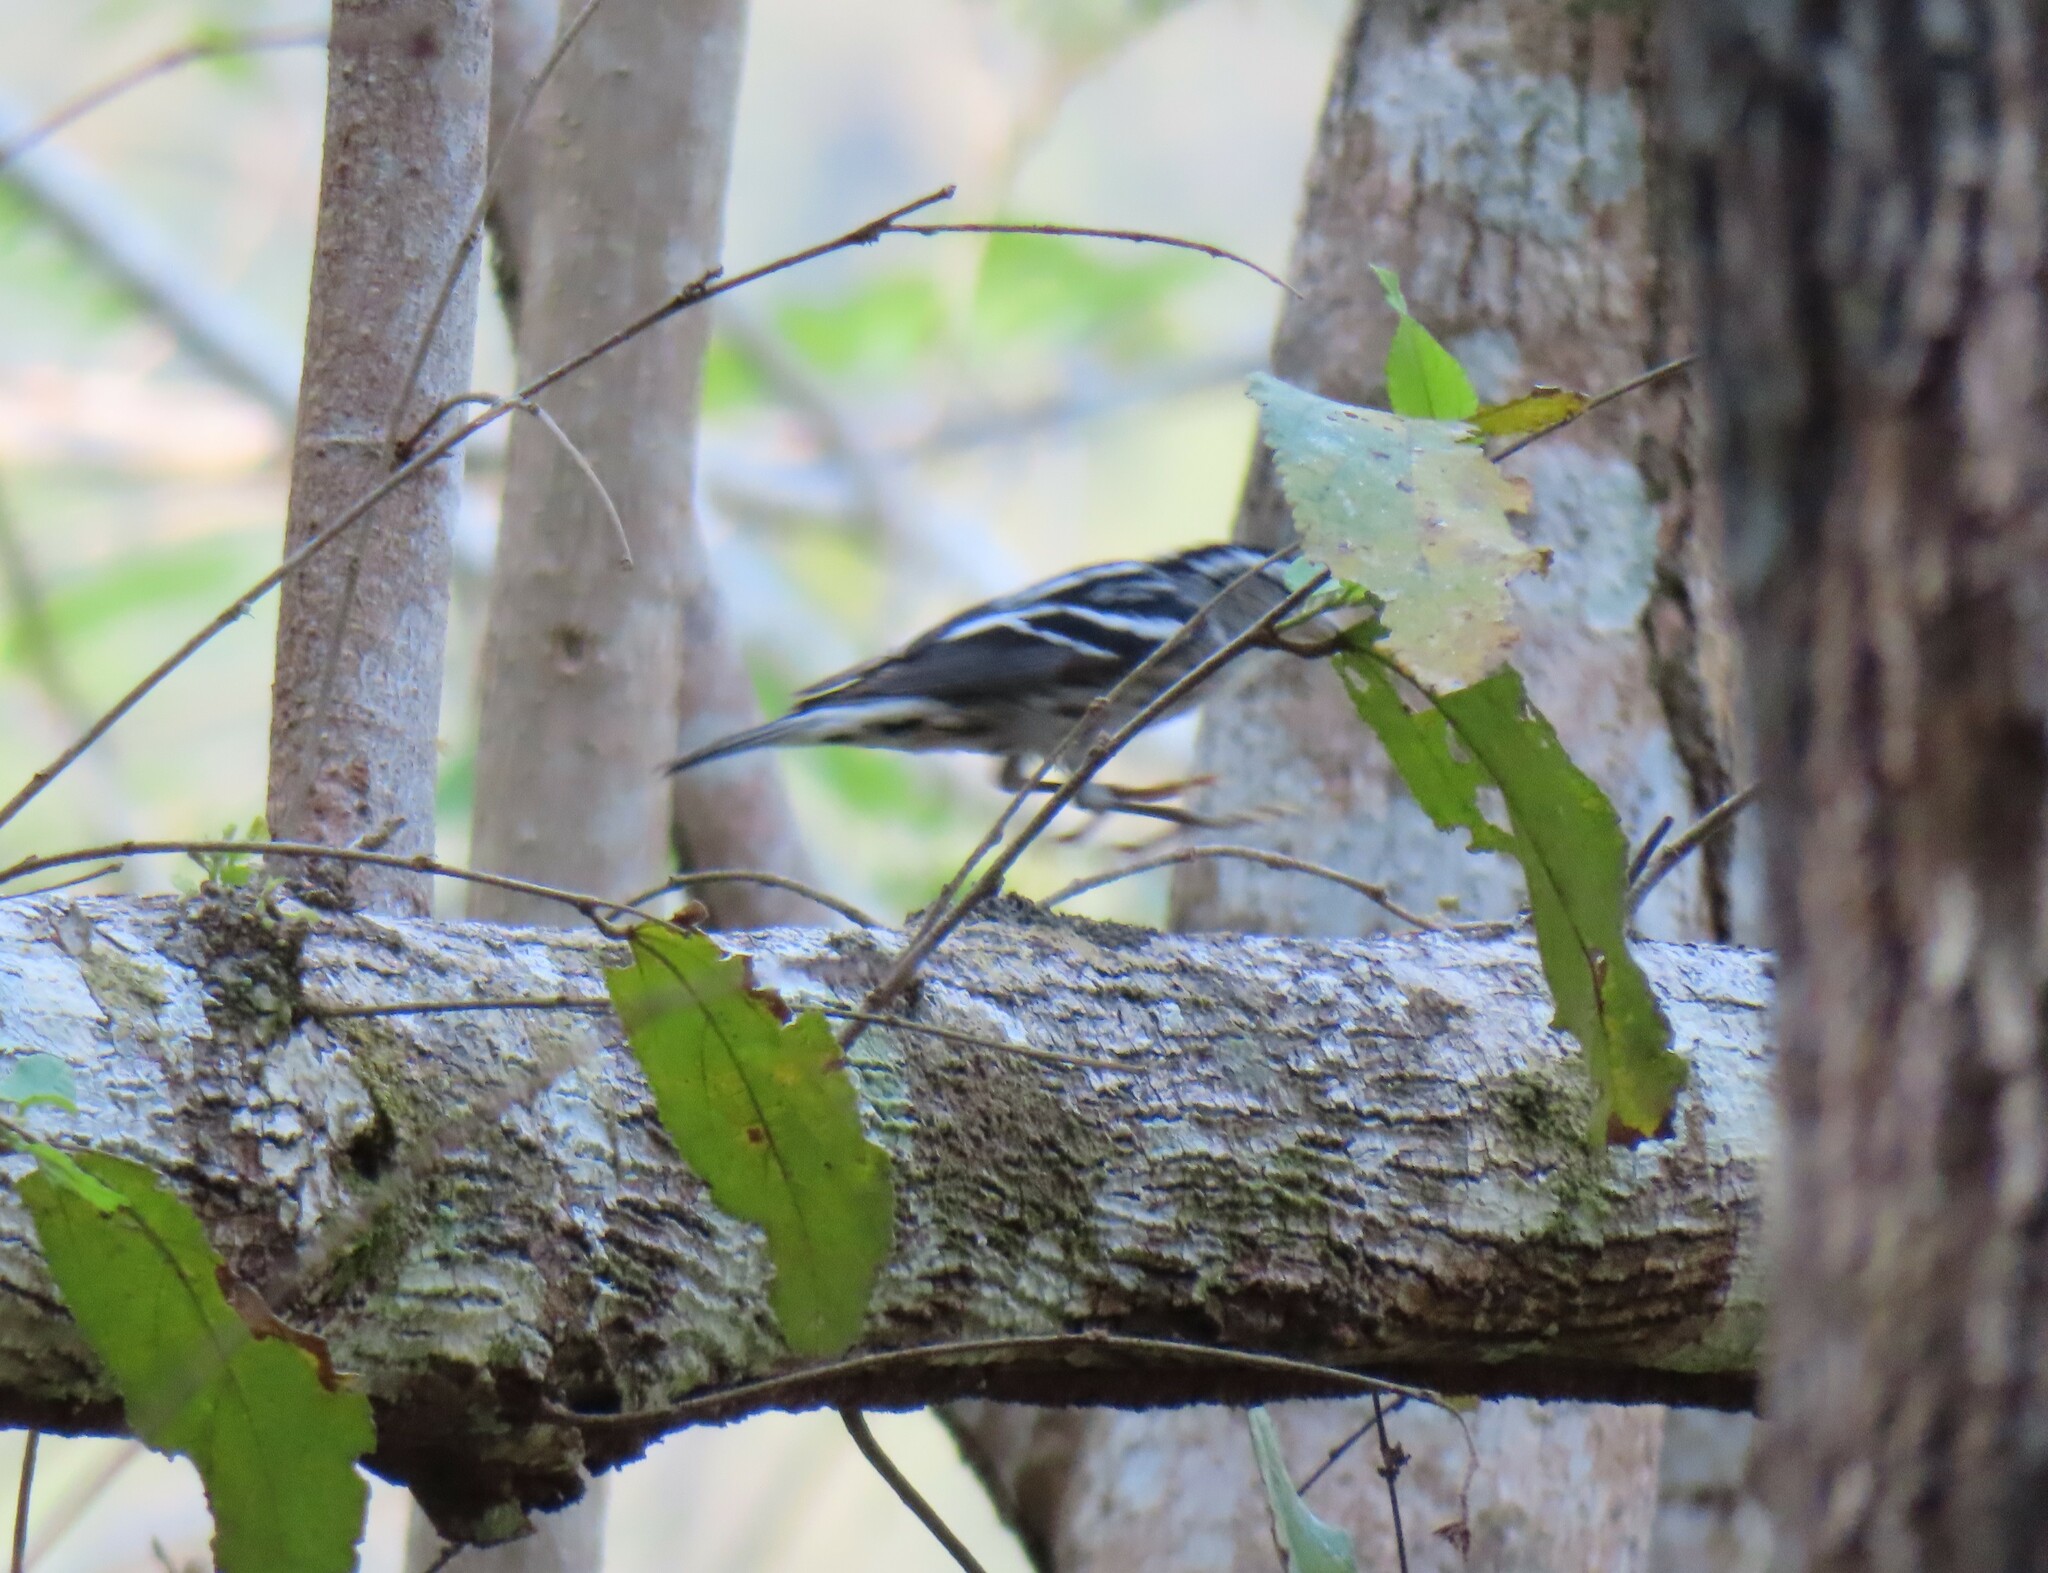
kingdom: Animalia
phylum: Chordata
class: Aves
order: Passeriformes
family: Parulidae
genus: Mniotilta
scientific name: Mniotilta varia
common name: Black-and-white warbler
